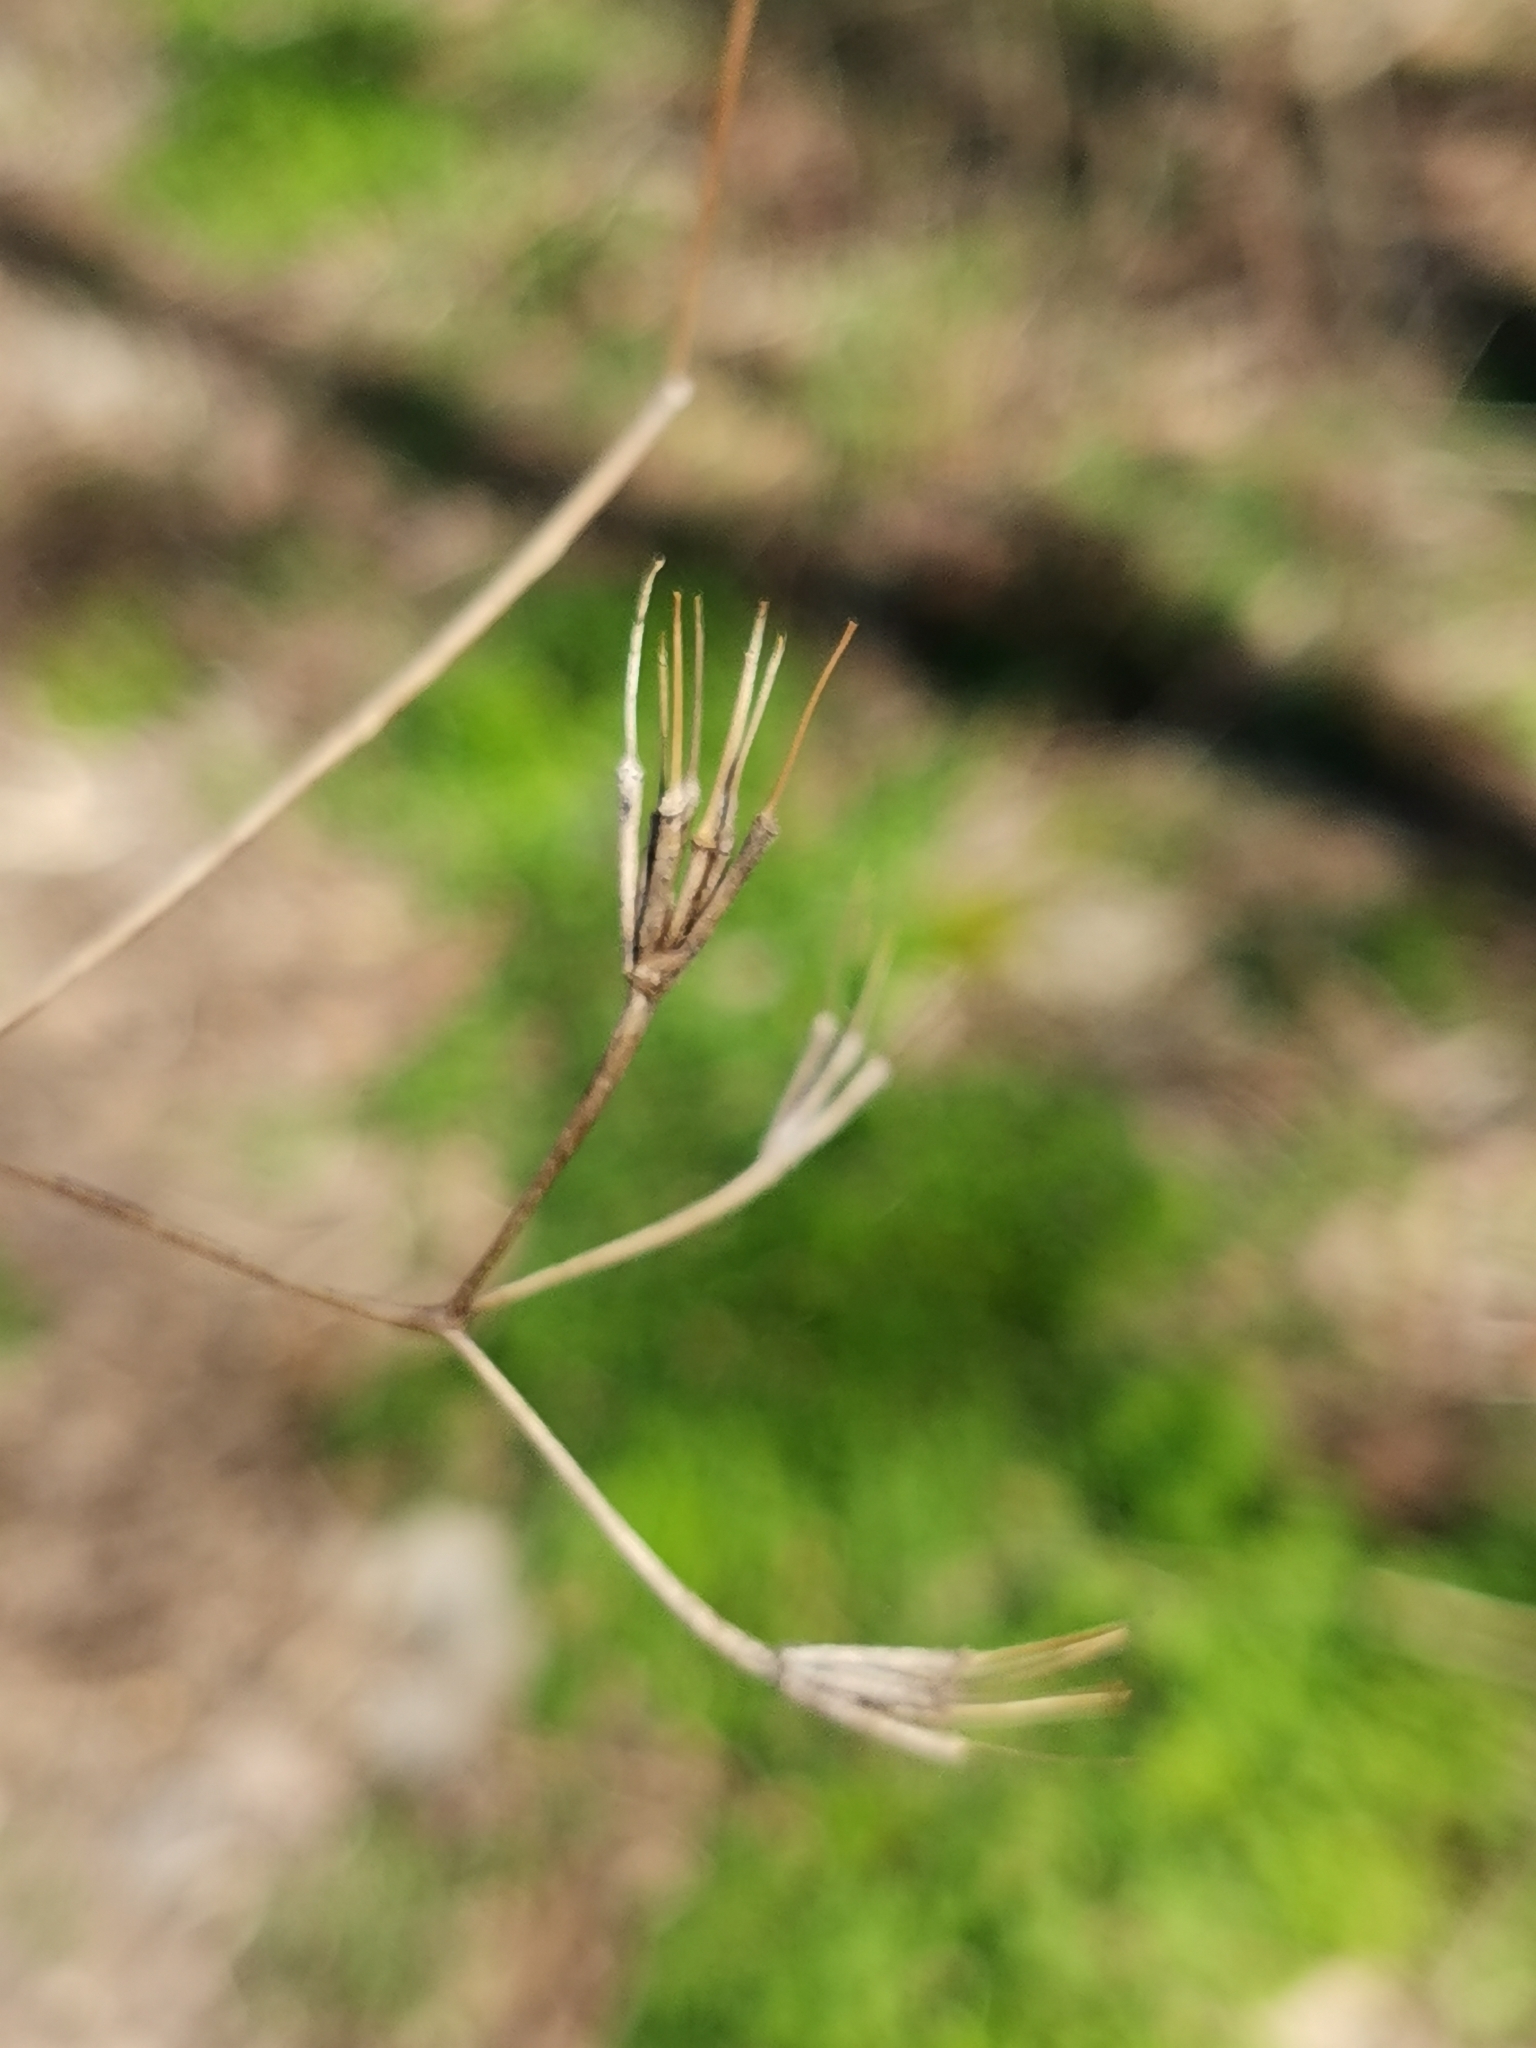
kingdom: Plantae
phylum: Tracheophyta
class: Magnoliopsida
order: Apiales
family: Apiaceae
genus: Chaerophyllum
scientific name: Chaerophyllum nodosum
